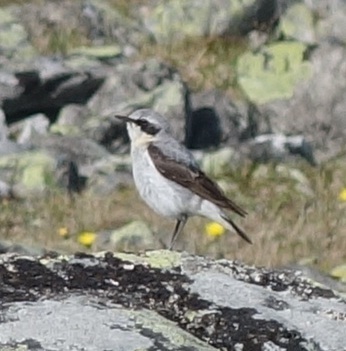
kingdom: Animalia
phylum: Chordata
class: Aves
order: Passeriformes
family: Muscicapidae
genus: Oenanthe
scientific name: Oenanthe oenanthe
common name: Northern wheatear
